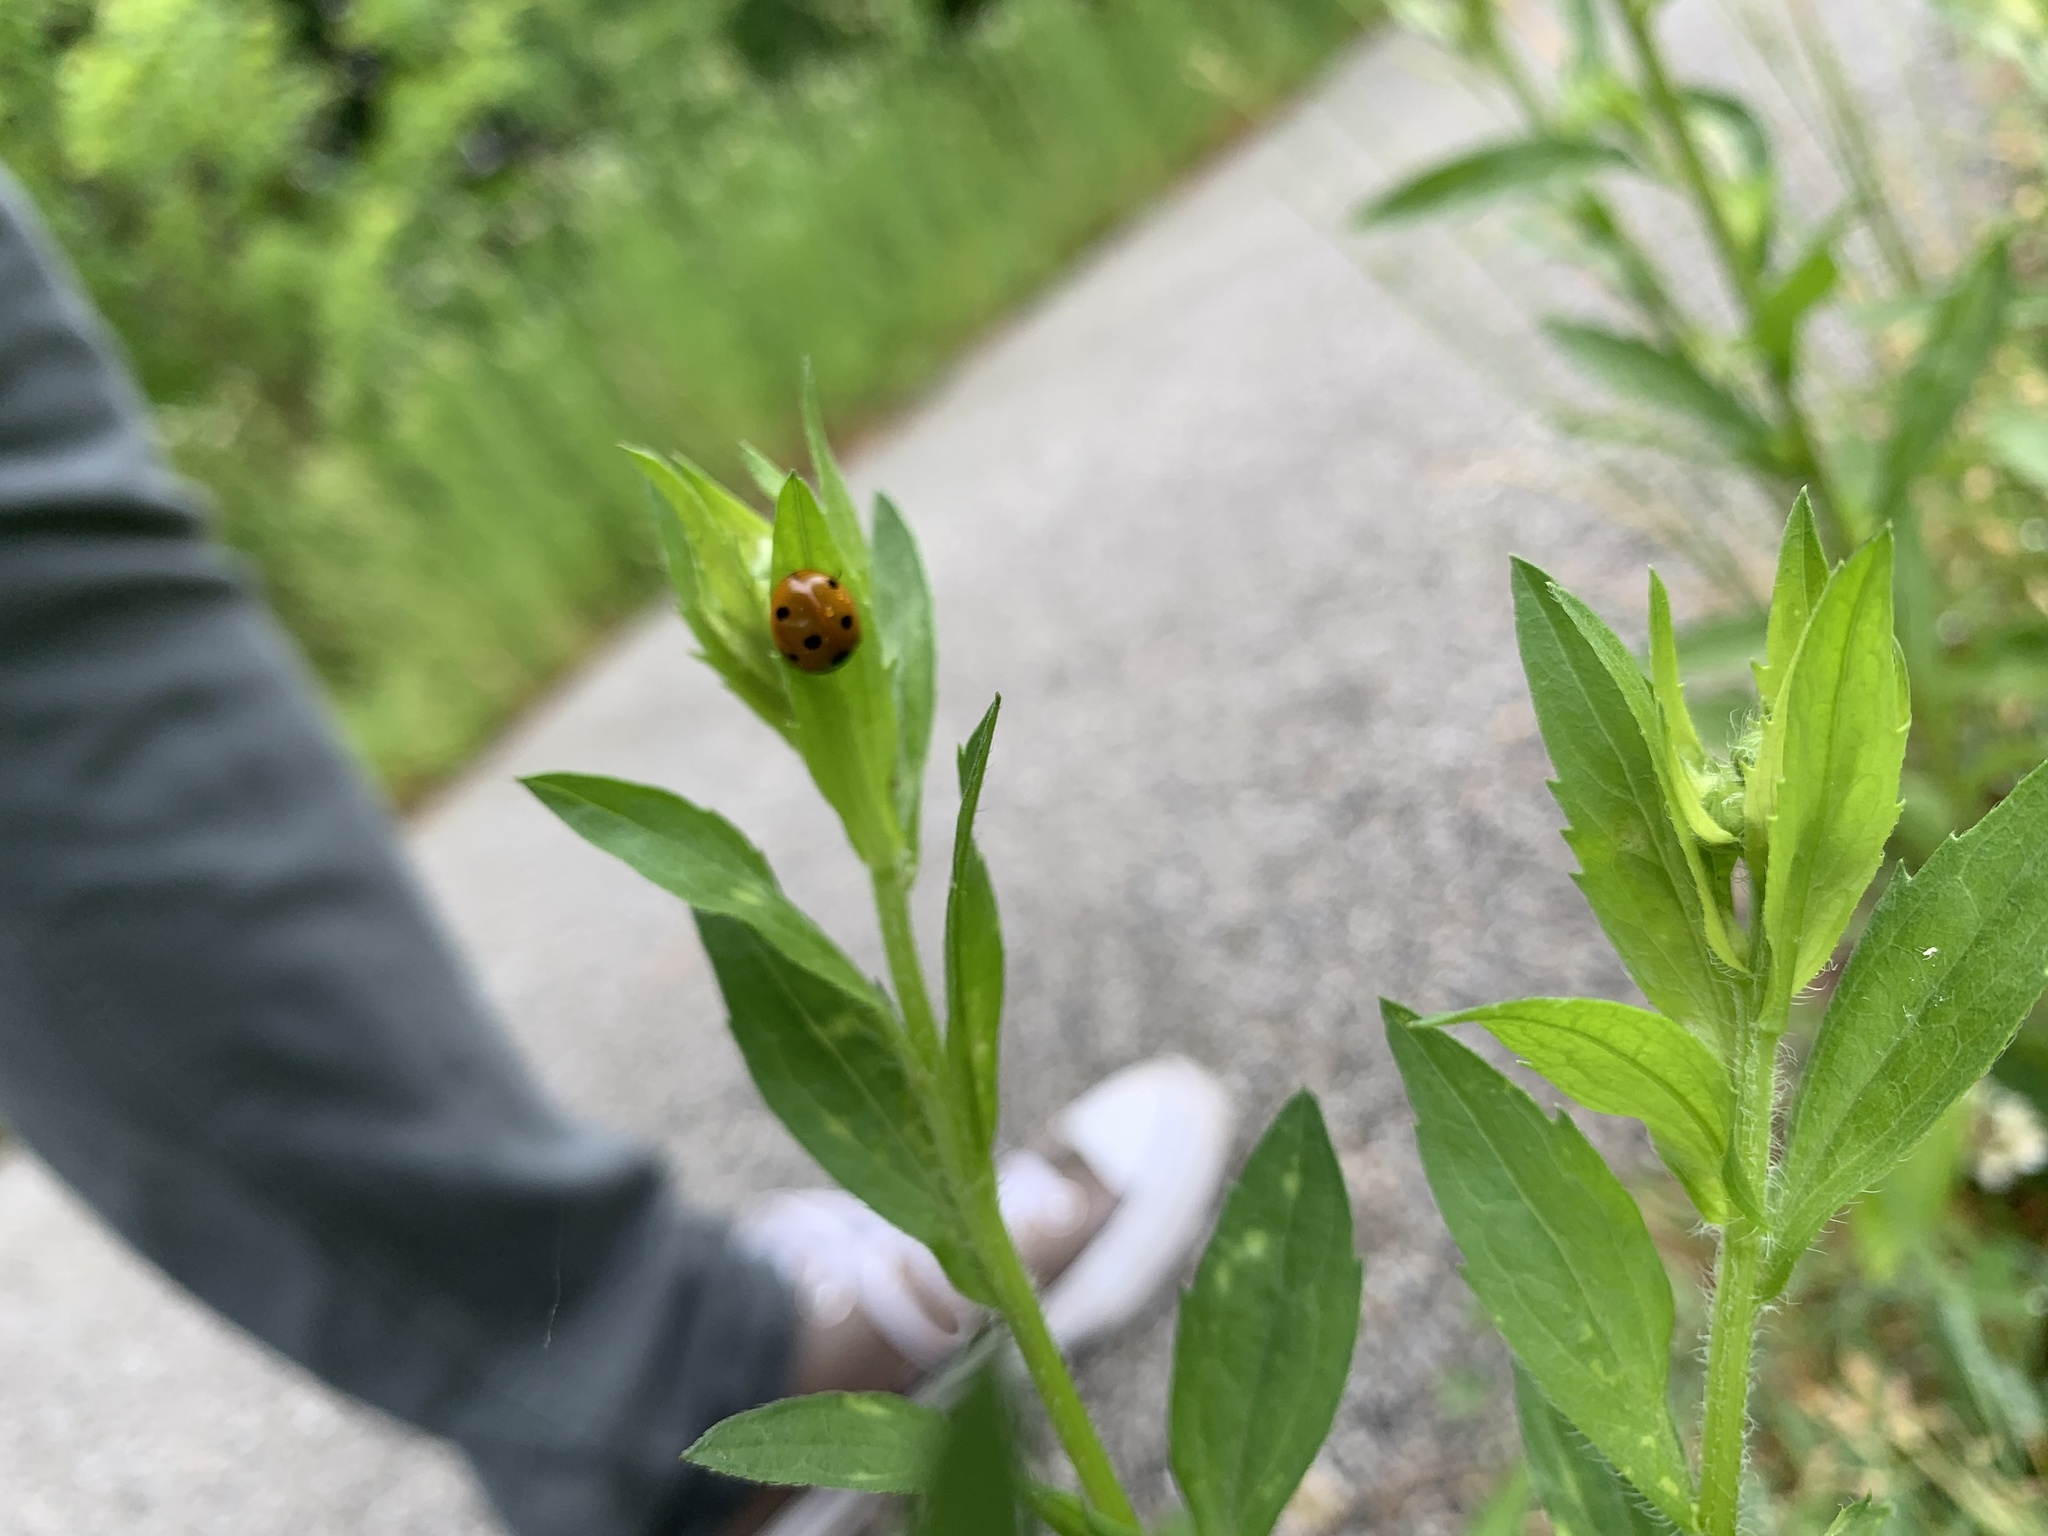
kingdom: Animalia
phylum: Arthropoda
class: Insecta
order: Coleoptera
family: Coccinellidae
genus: Coccinella
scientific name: Coccinella septempunctata
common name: Sevenspotted lady beetle
